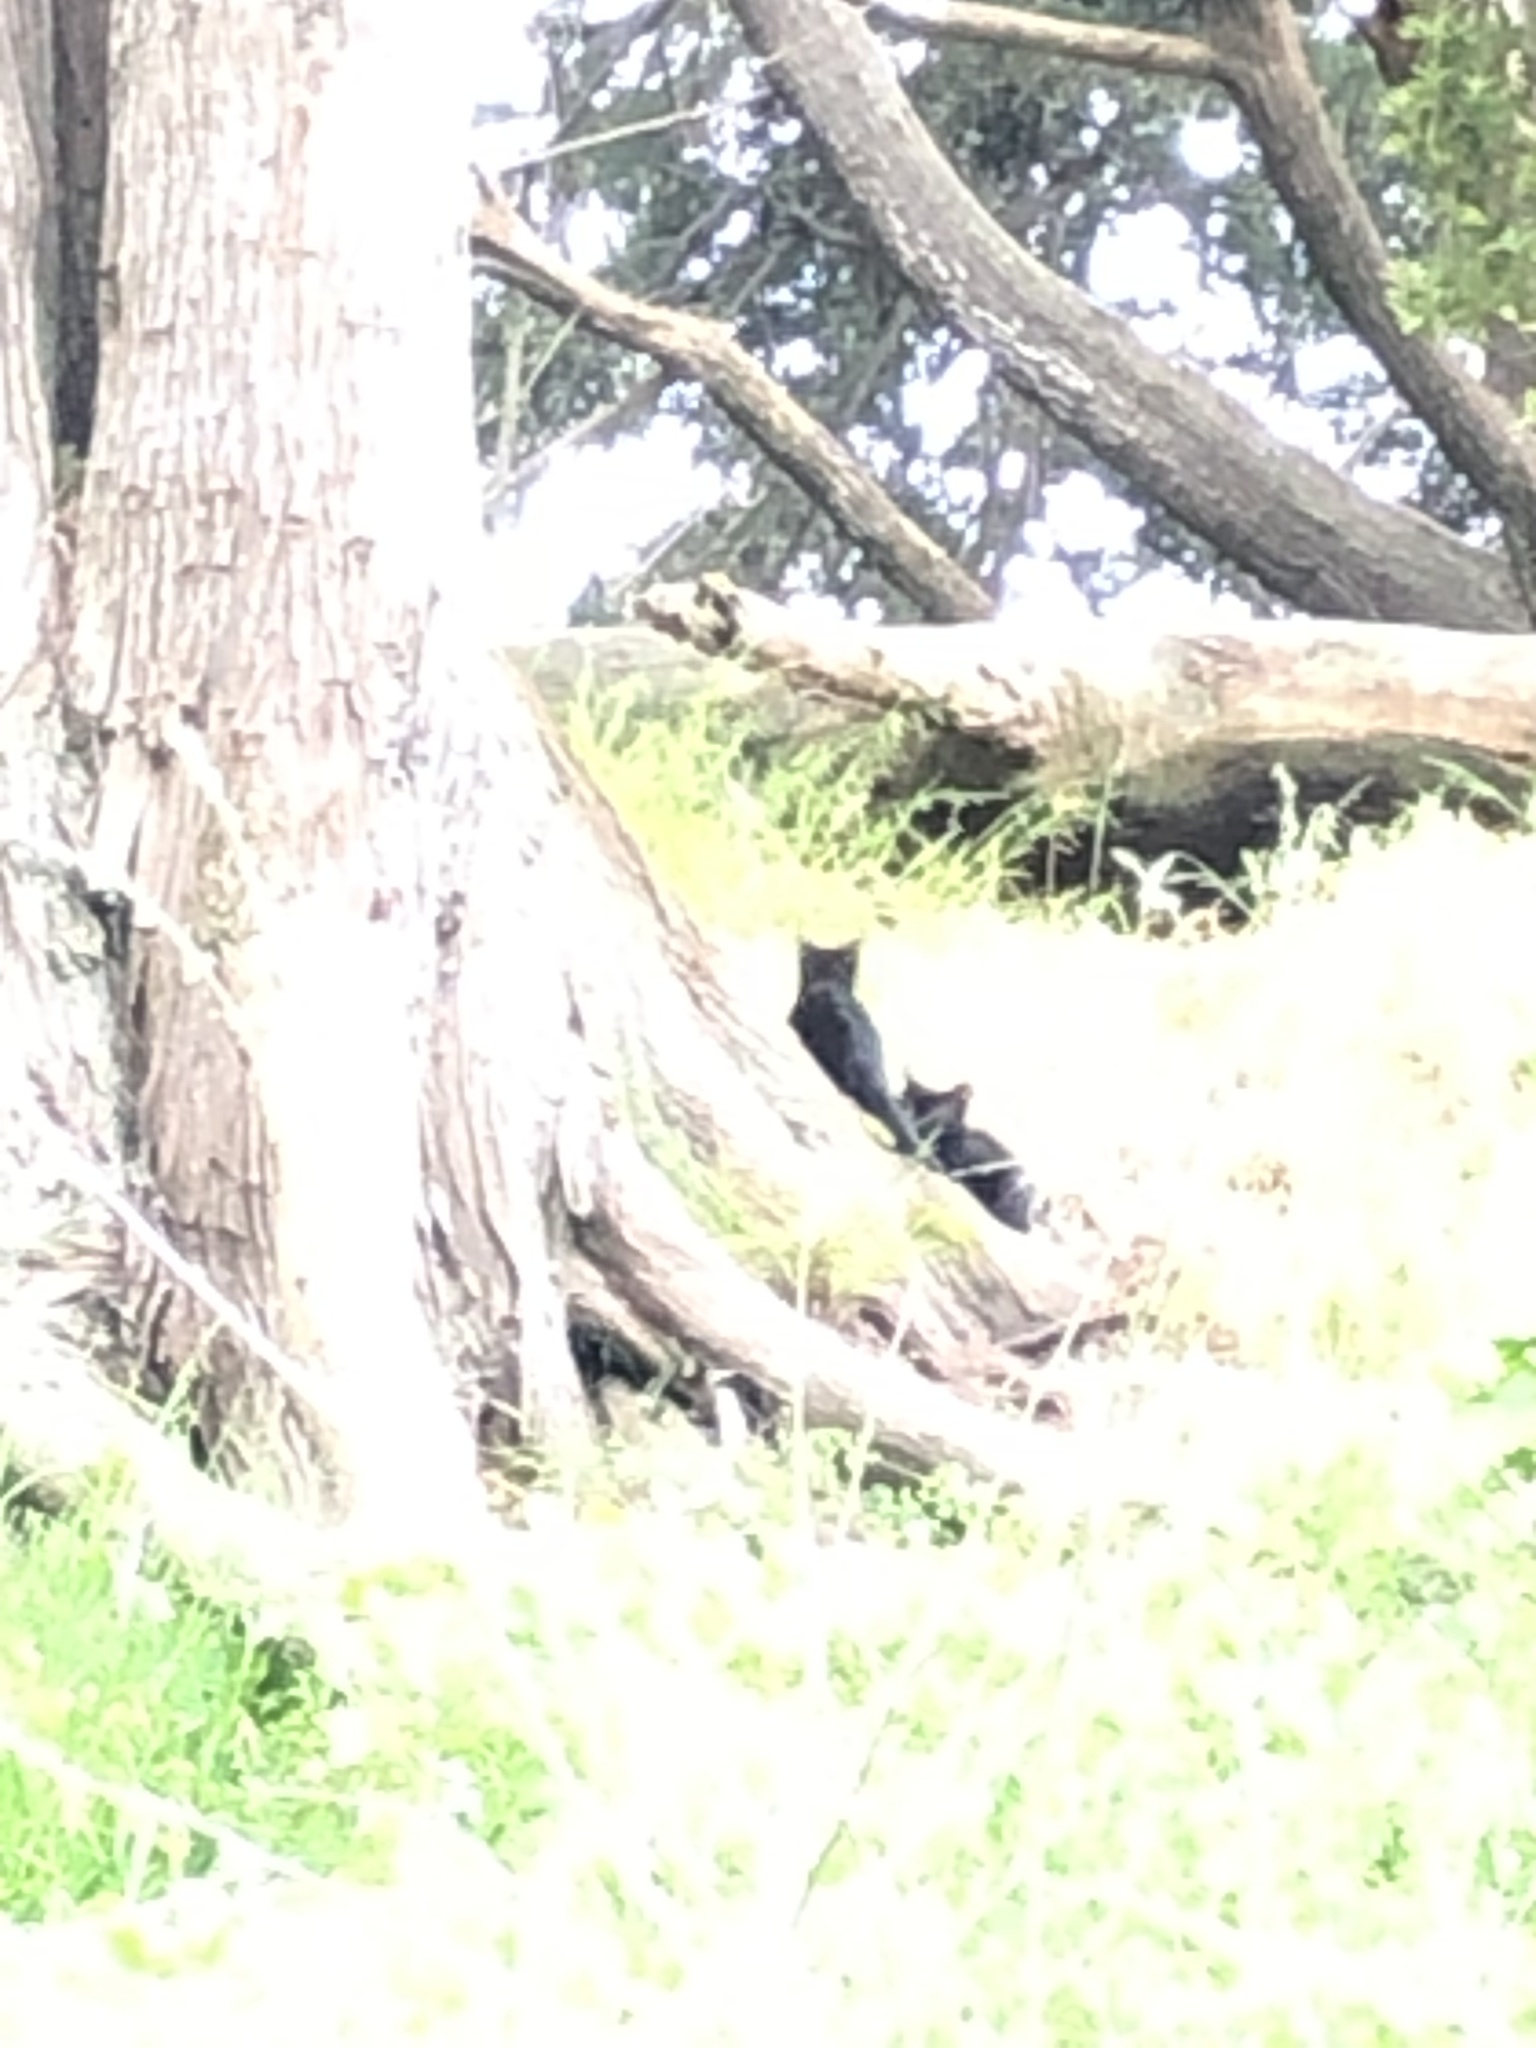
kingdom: Animalia
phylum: Chordata
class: Mammalia
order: Carnivora
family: Felidae
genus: Felis
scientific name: Felis catus
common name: Domestic cat
